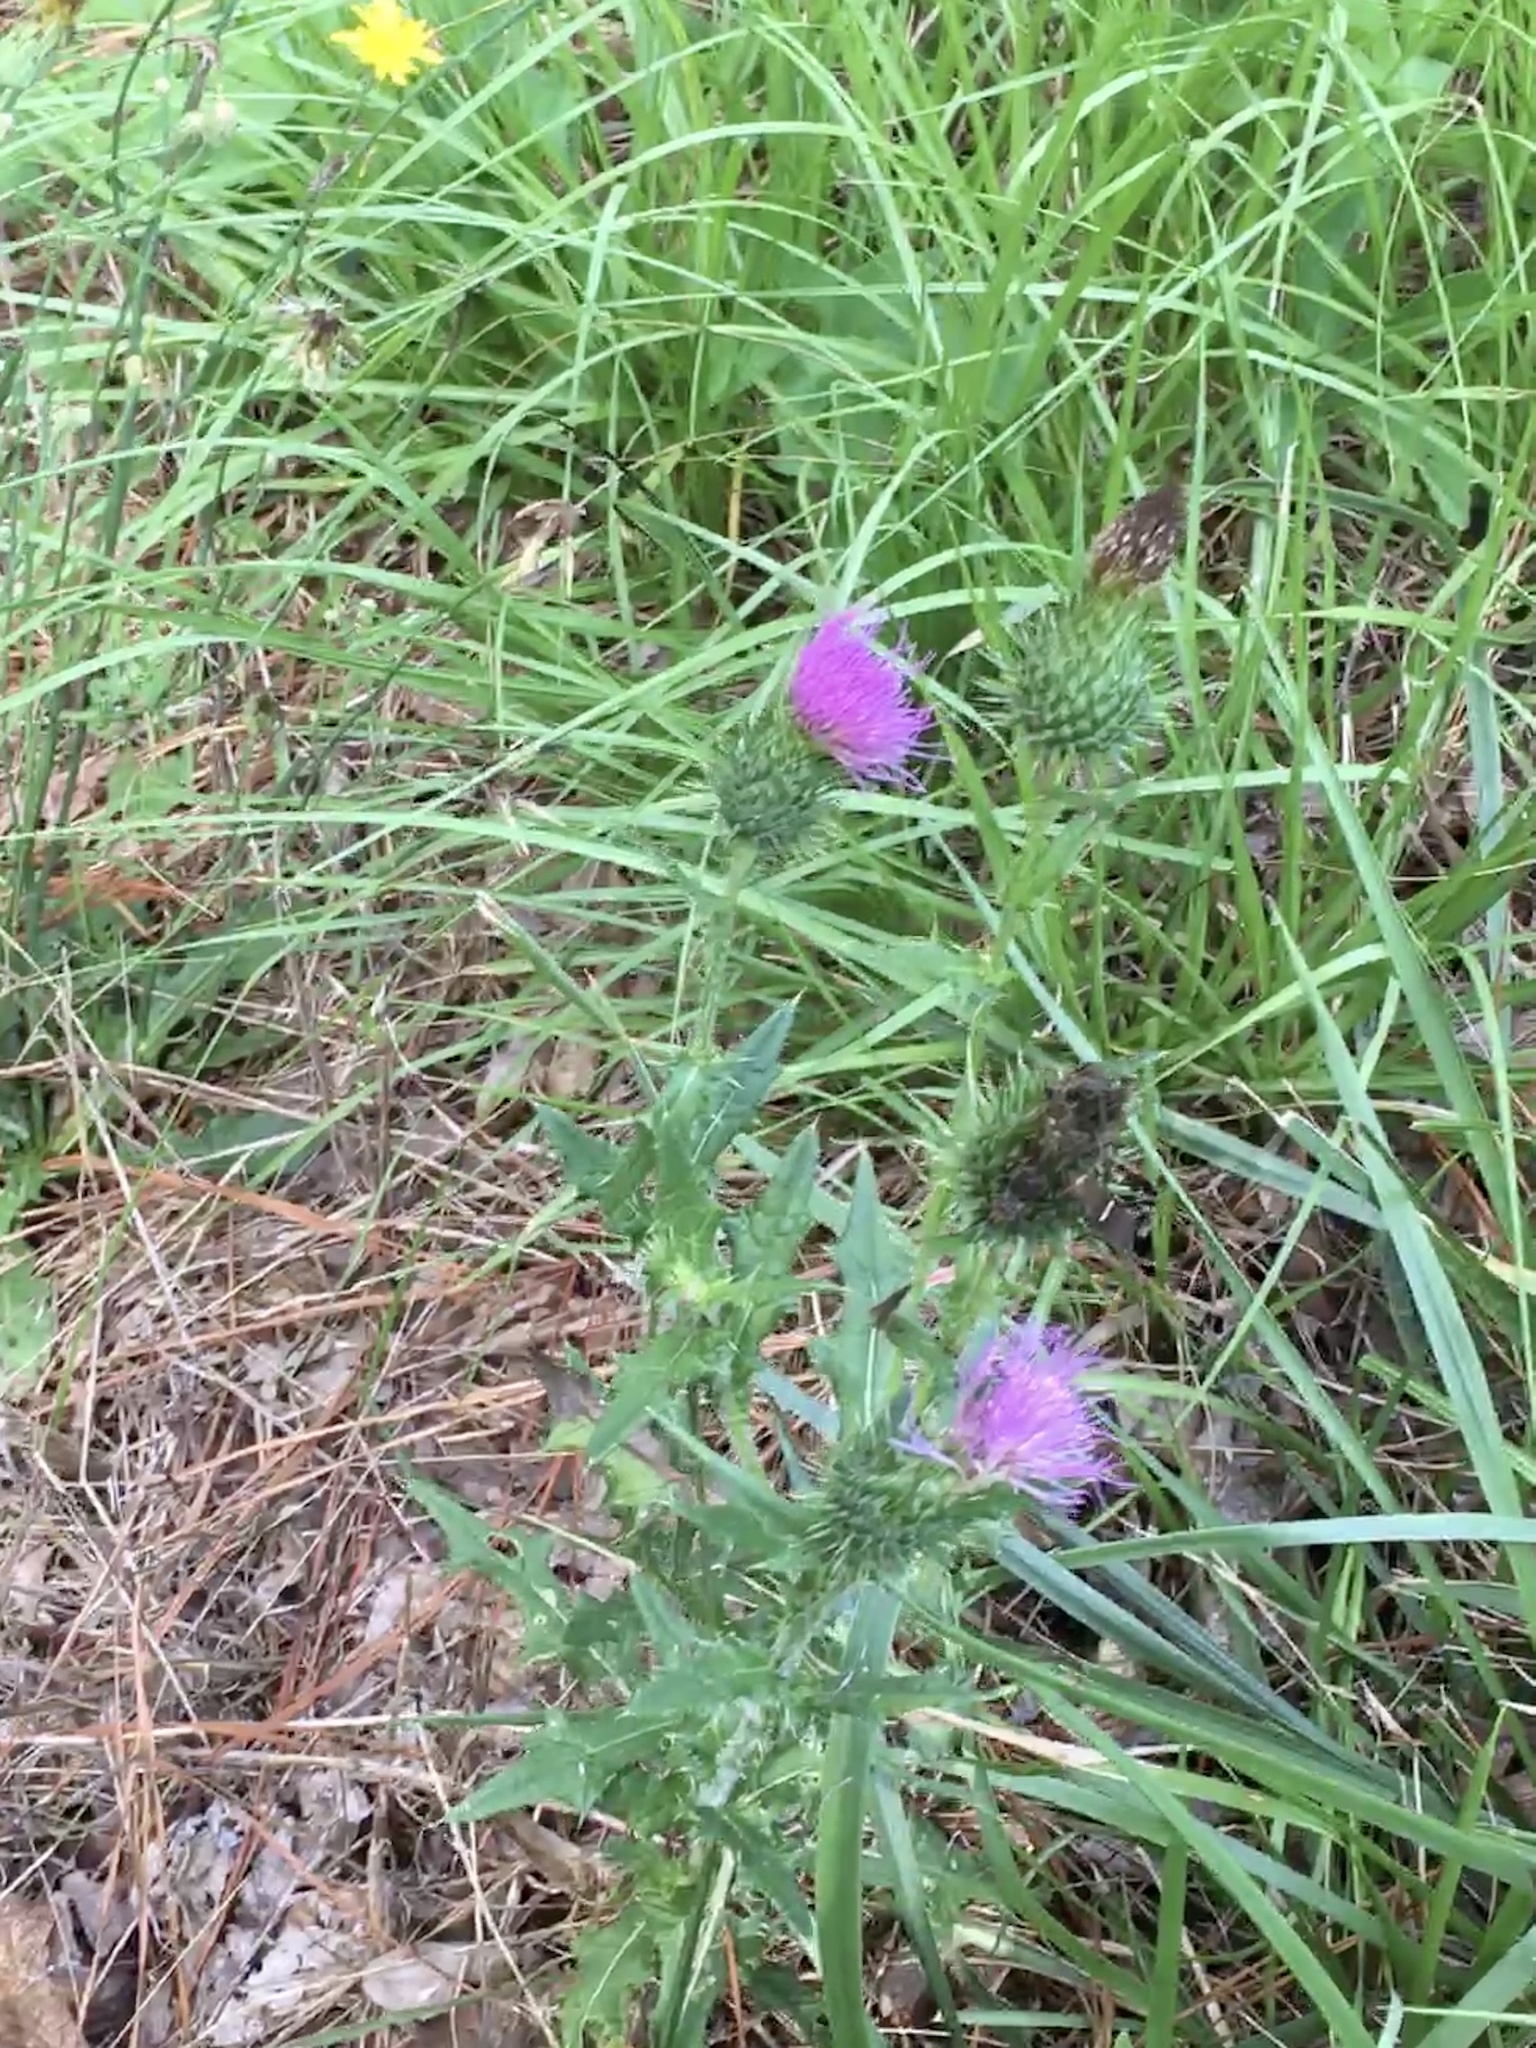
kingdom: Plantae
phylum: Tracheophyta
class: Magnoliopsida
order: Asterales
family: Asteraceae
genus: Cirsium
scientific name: Cirsium vulgare
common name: Bull thistle
